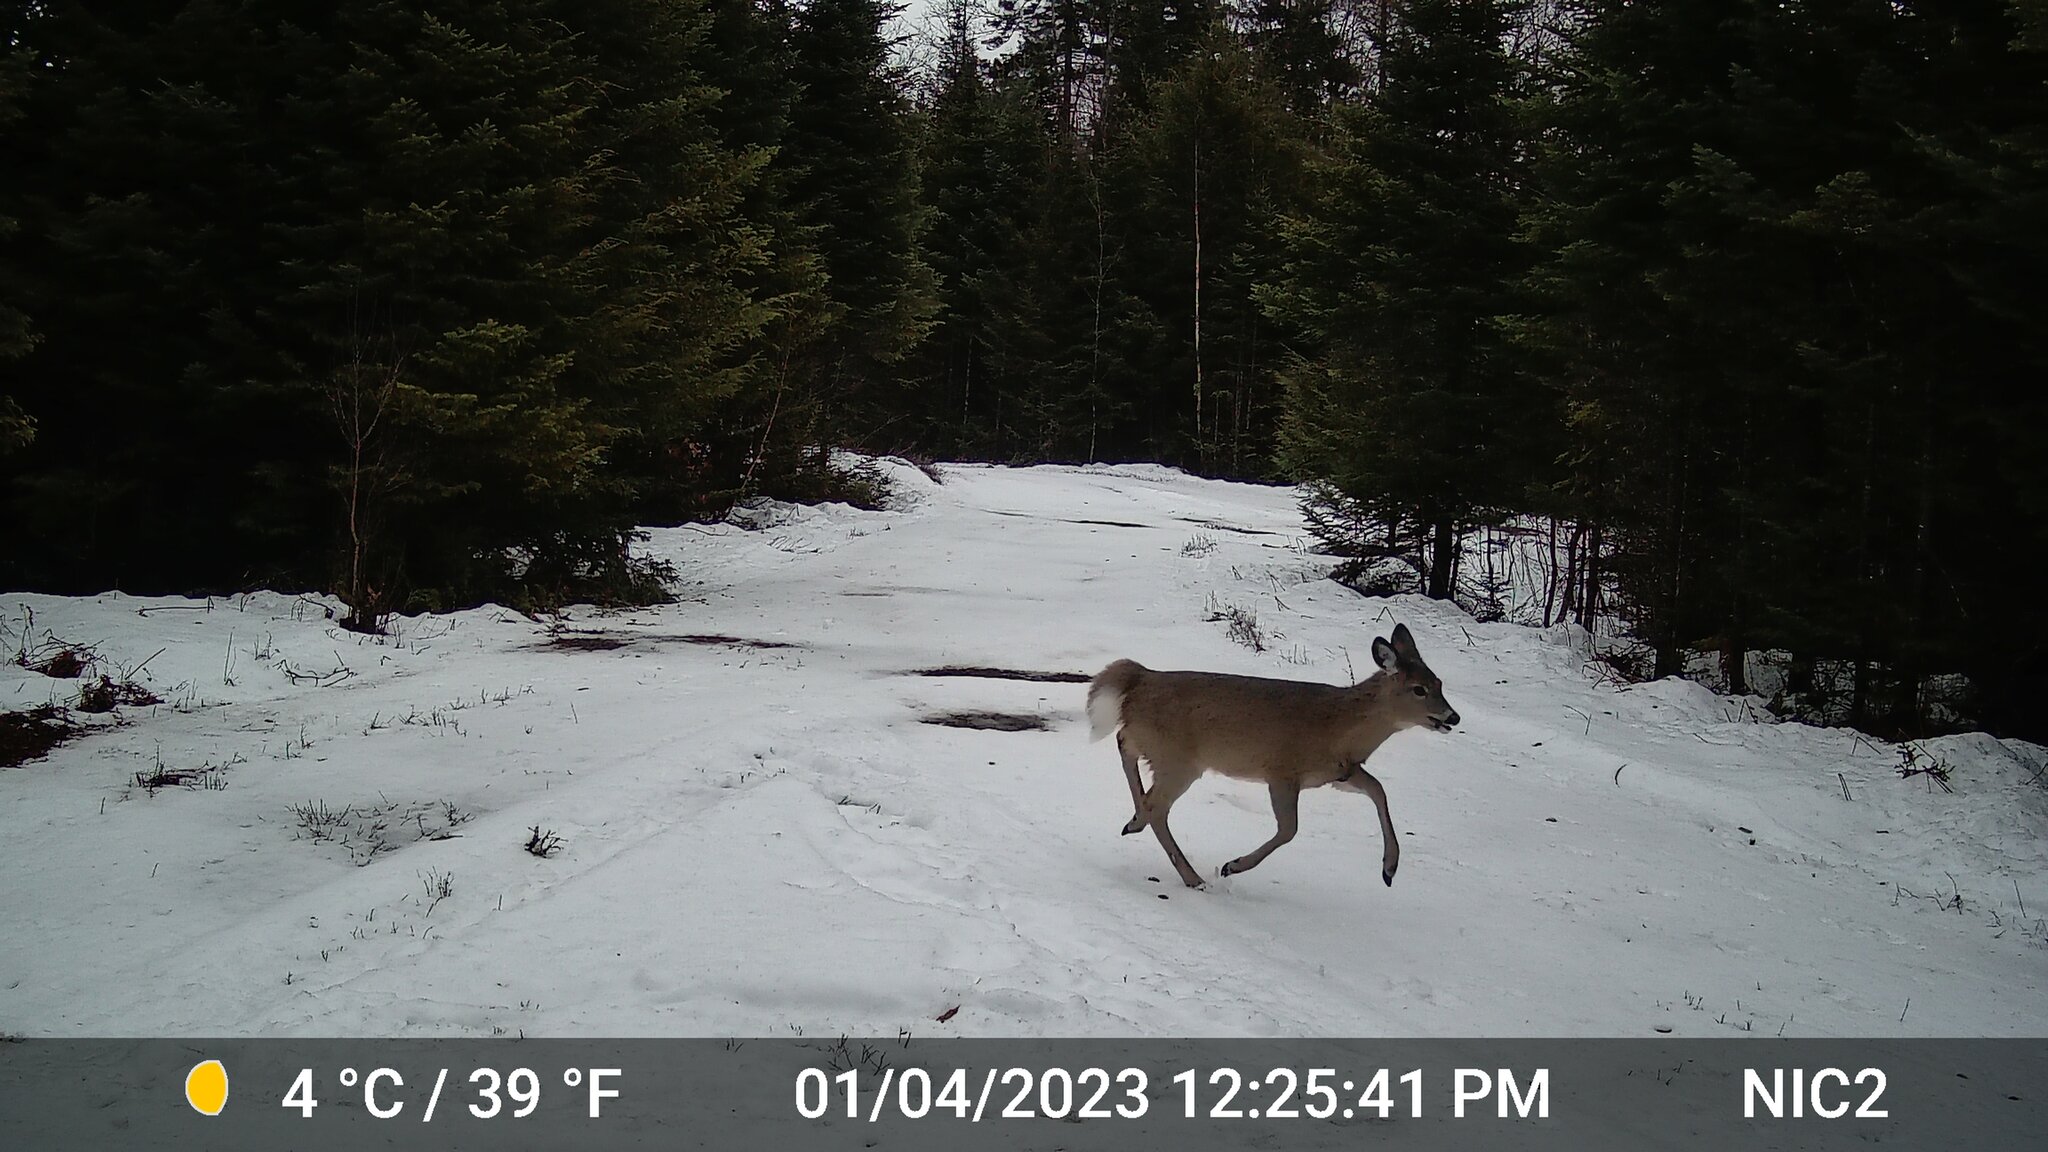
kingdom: Animalia
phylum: Chordata
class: Mammalia
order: Artiodactyla
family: Cervidae
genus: Odocoileus
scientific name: Odocoileus virginianus
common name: White-tailed deer
